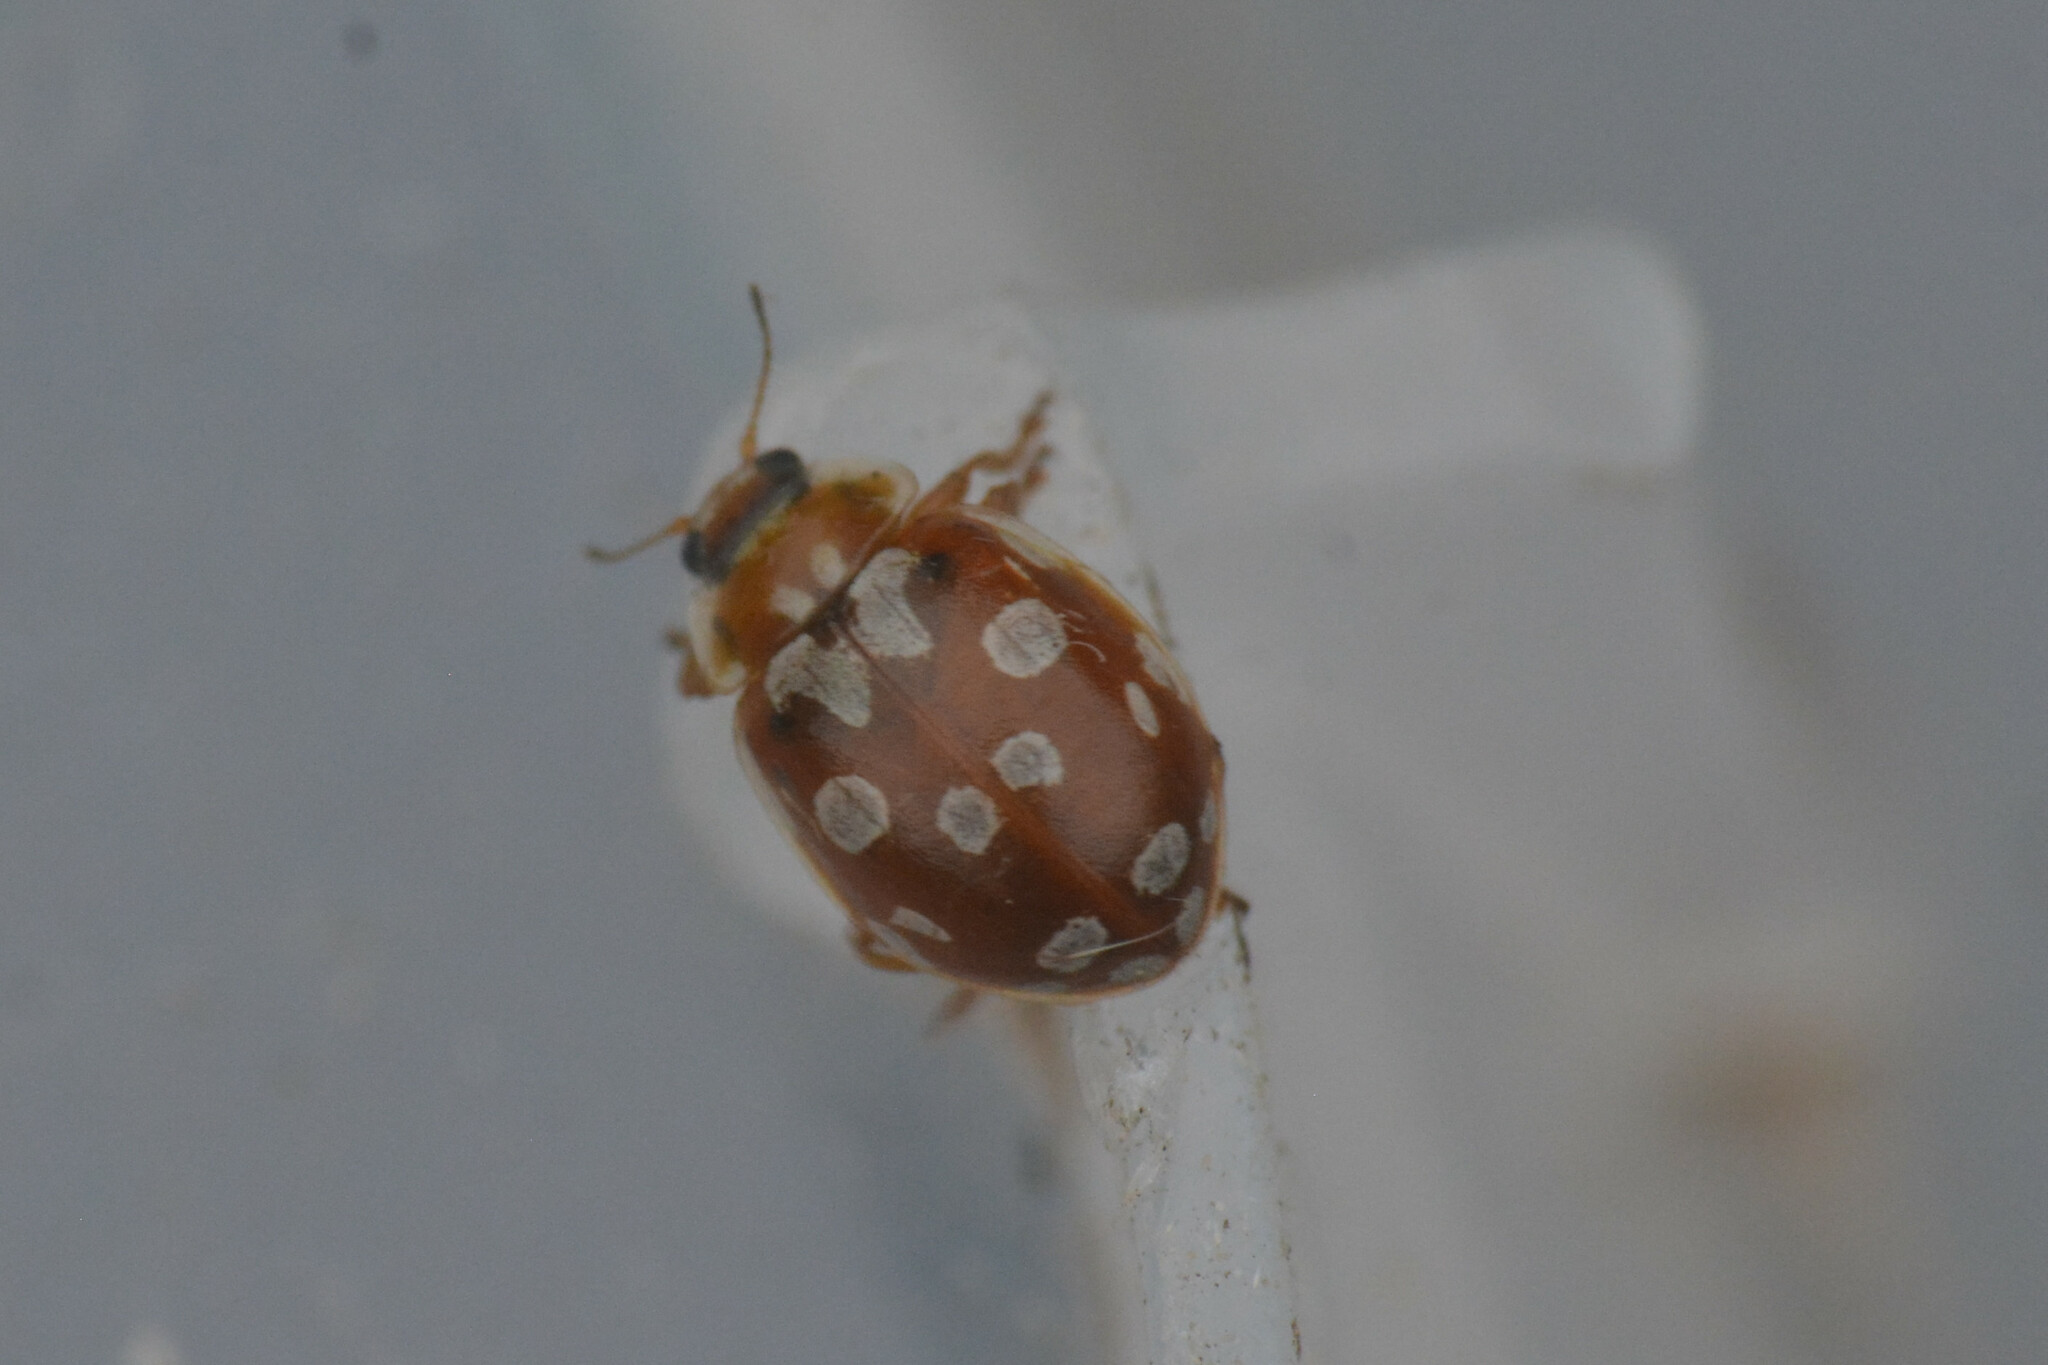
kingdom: Animalia
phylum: Arthropoda
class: Insecta
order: Coleoptera
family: Coccinellidae
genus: Myrrha
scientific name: Myrrha octodecimguttata
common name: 18-spot ladybird
